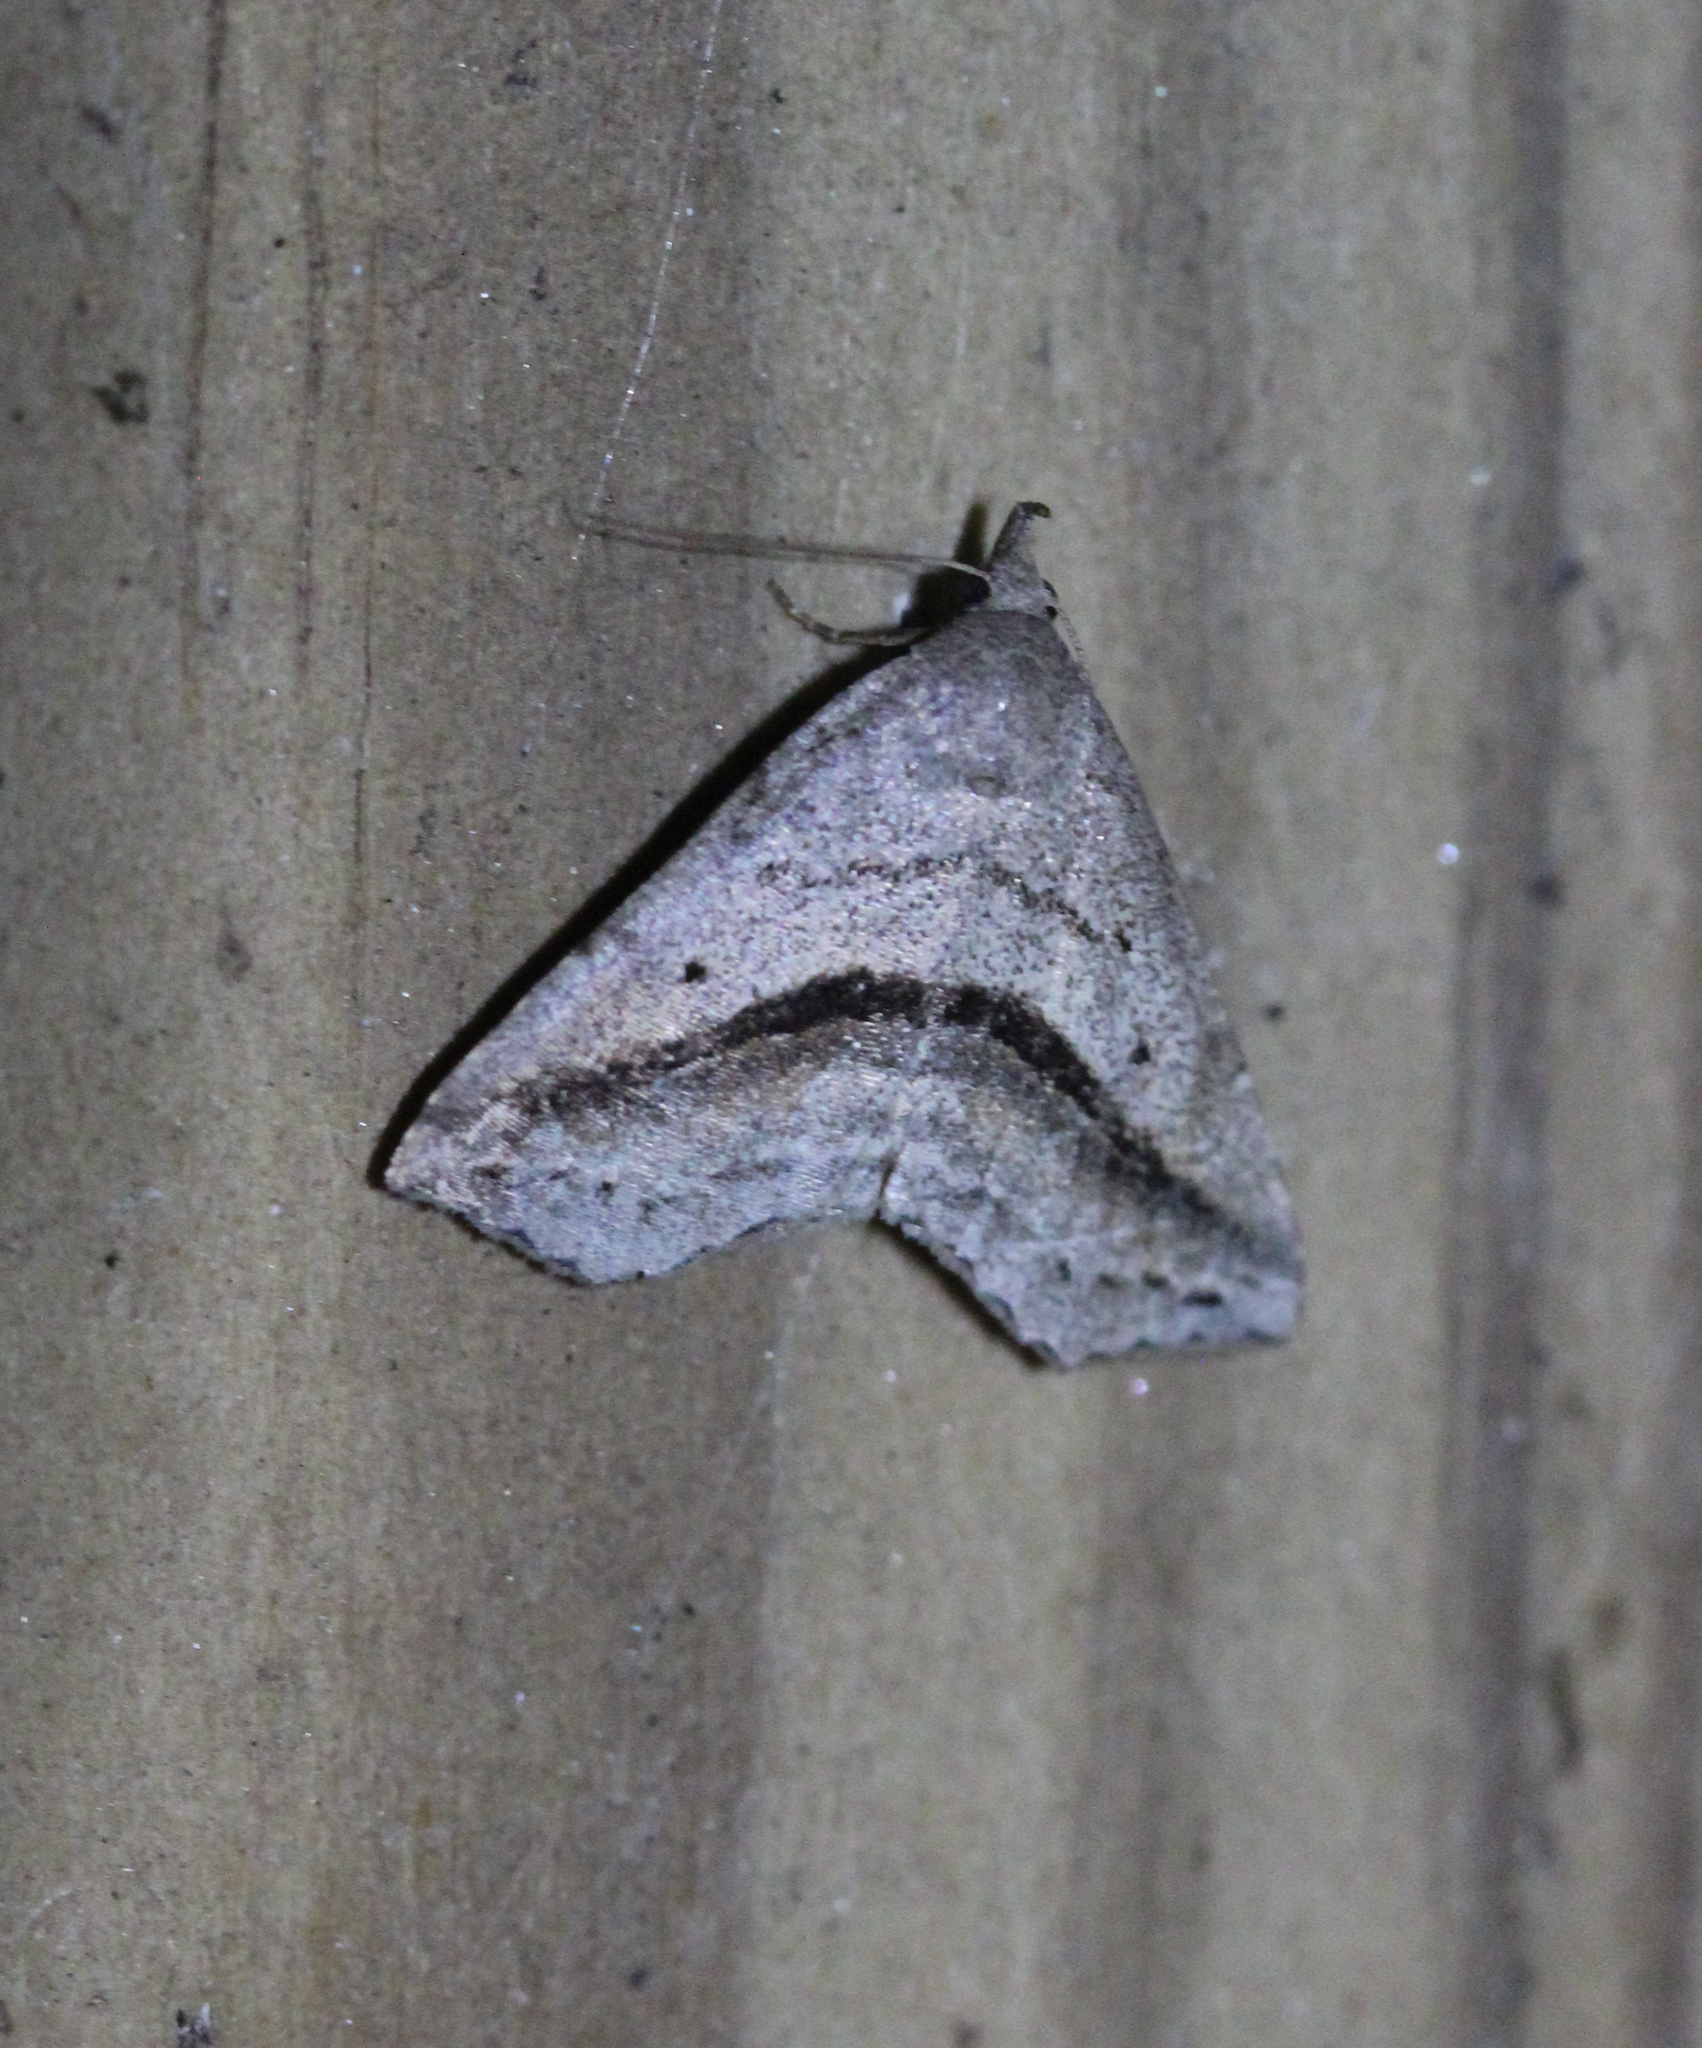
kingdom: Animalia
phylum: Arthropoda
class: Insecta
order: Lepidoptera
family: Erebidae
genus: Spargaloma
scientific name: Spargaloma perditalis
